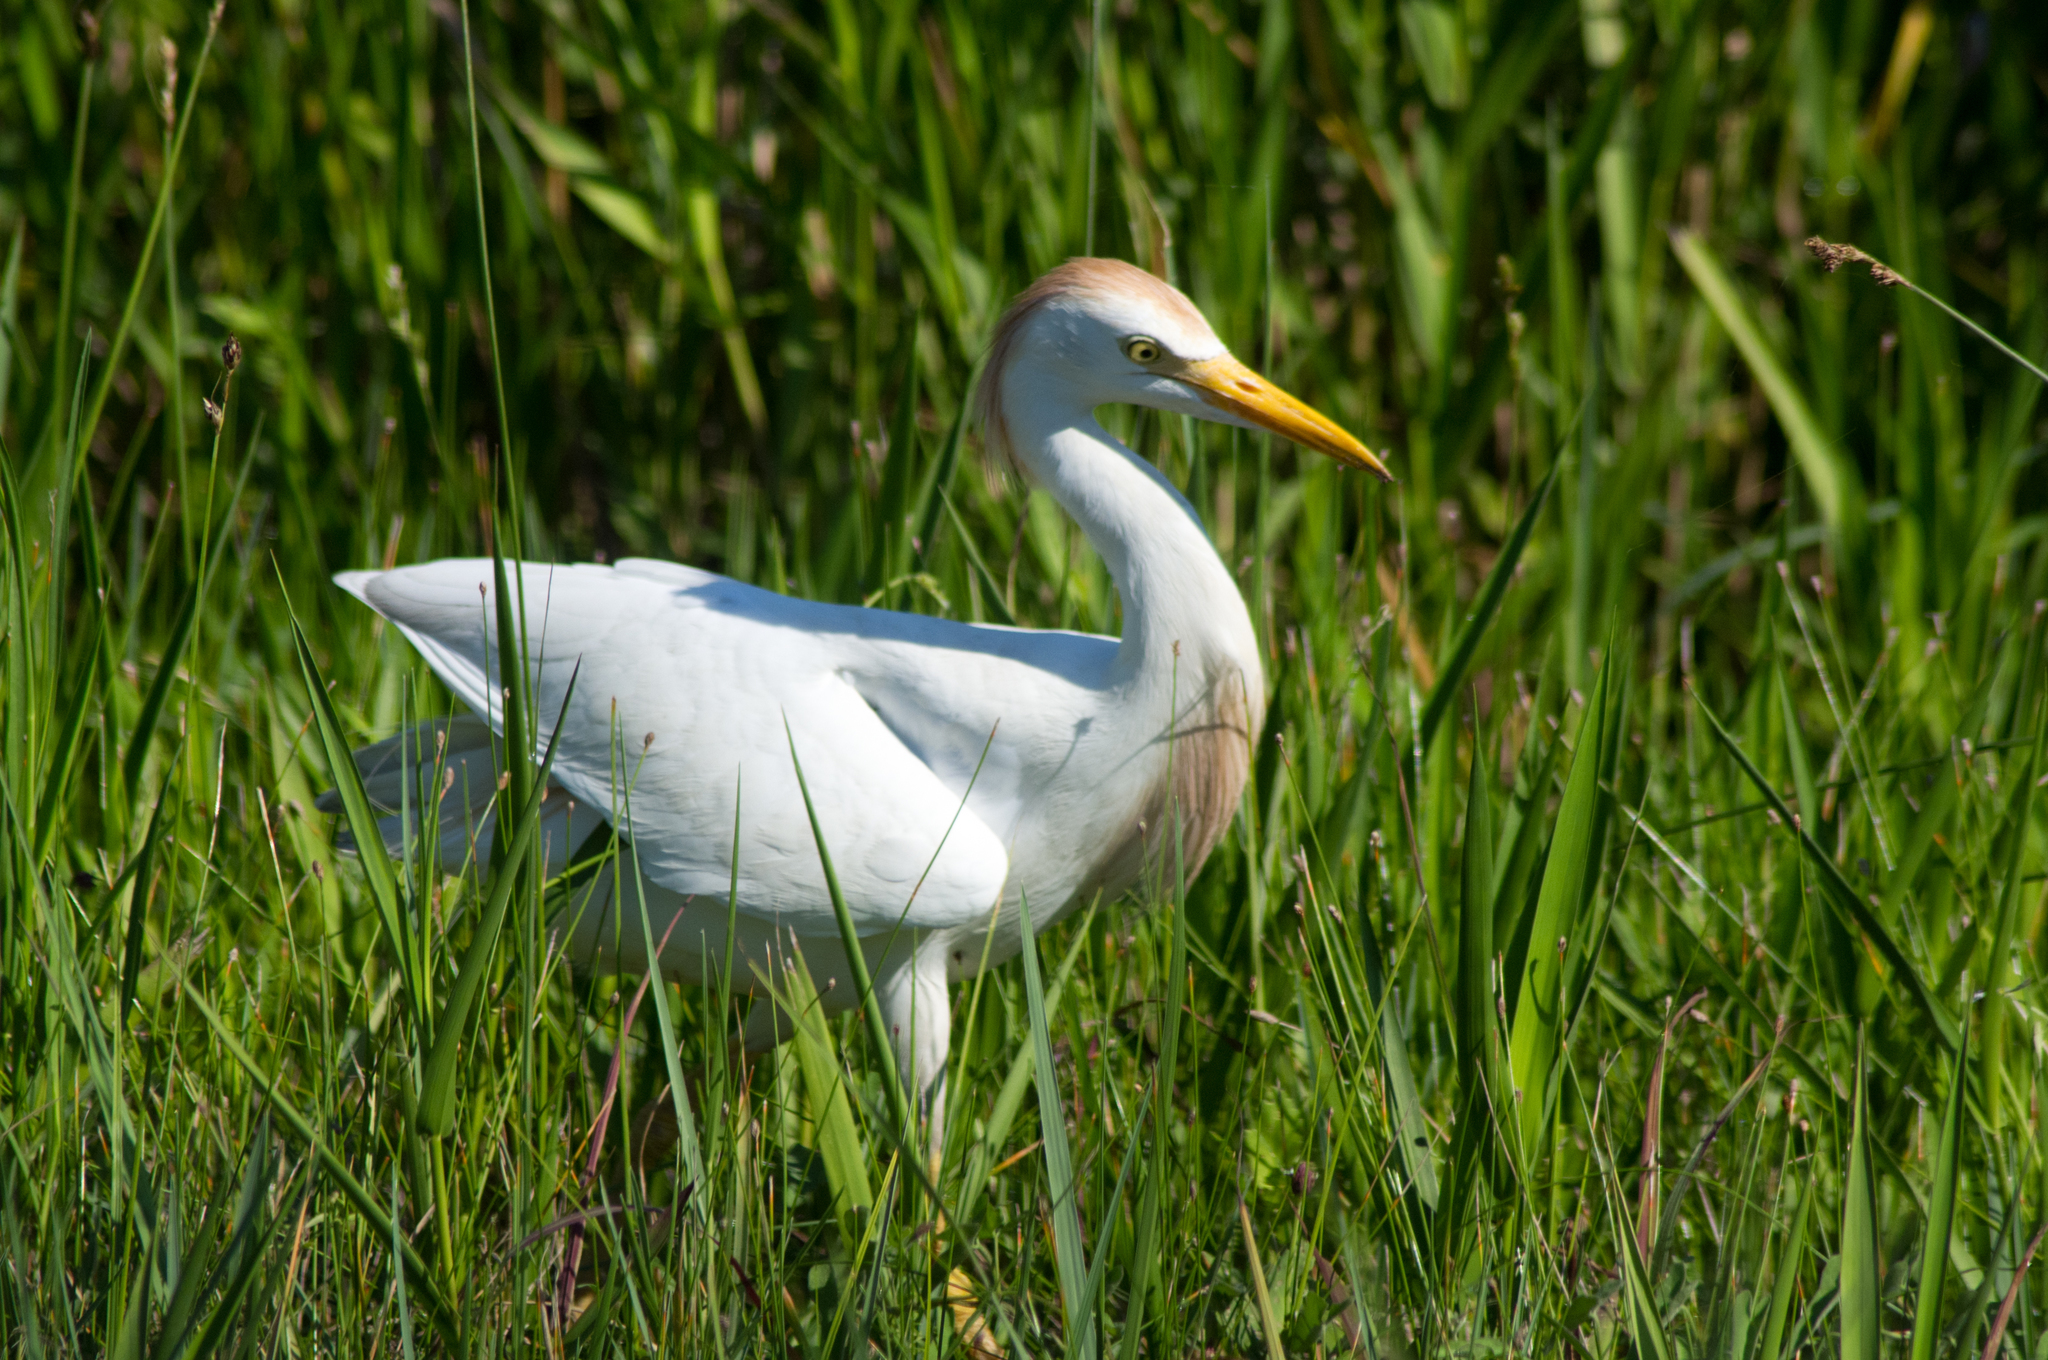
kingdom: Animalia
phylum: Chordata
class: Aves
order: Pelecaniformes
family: Ardeidae
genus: Bubulcus
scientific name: Bubulcus ibis
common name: Cattle egret
